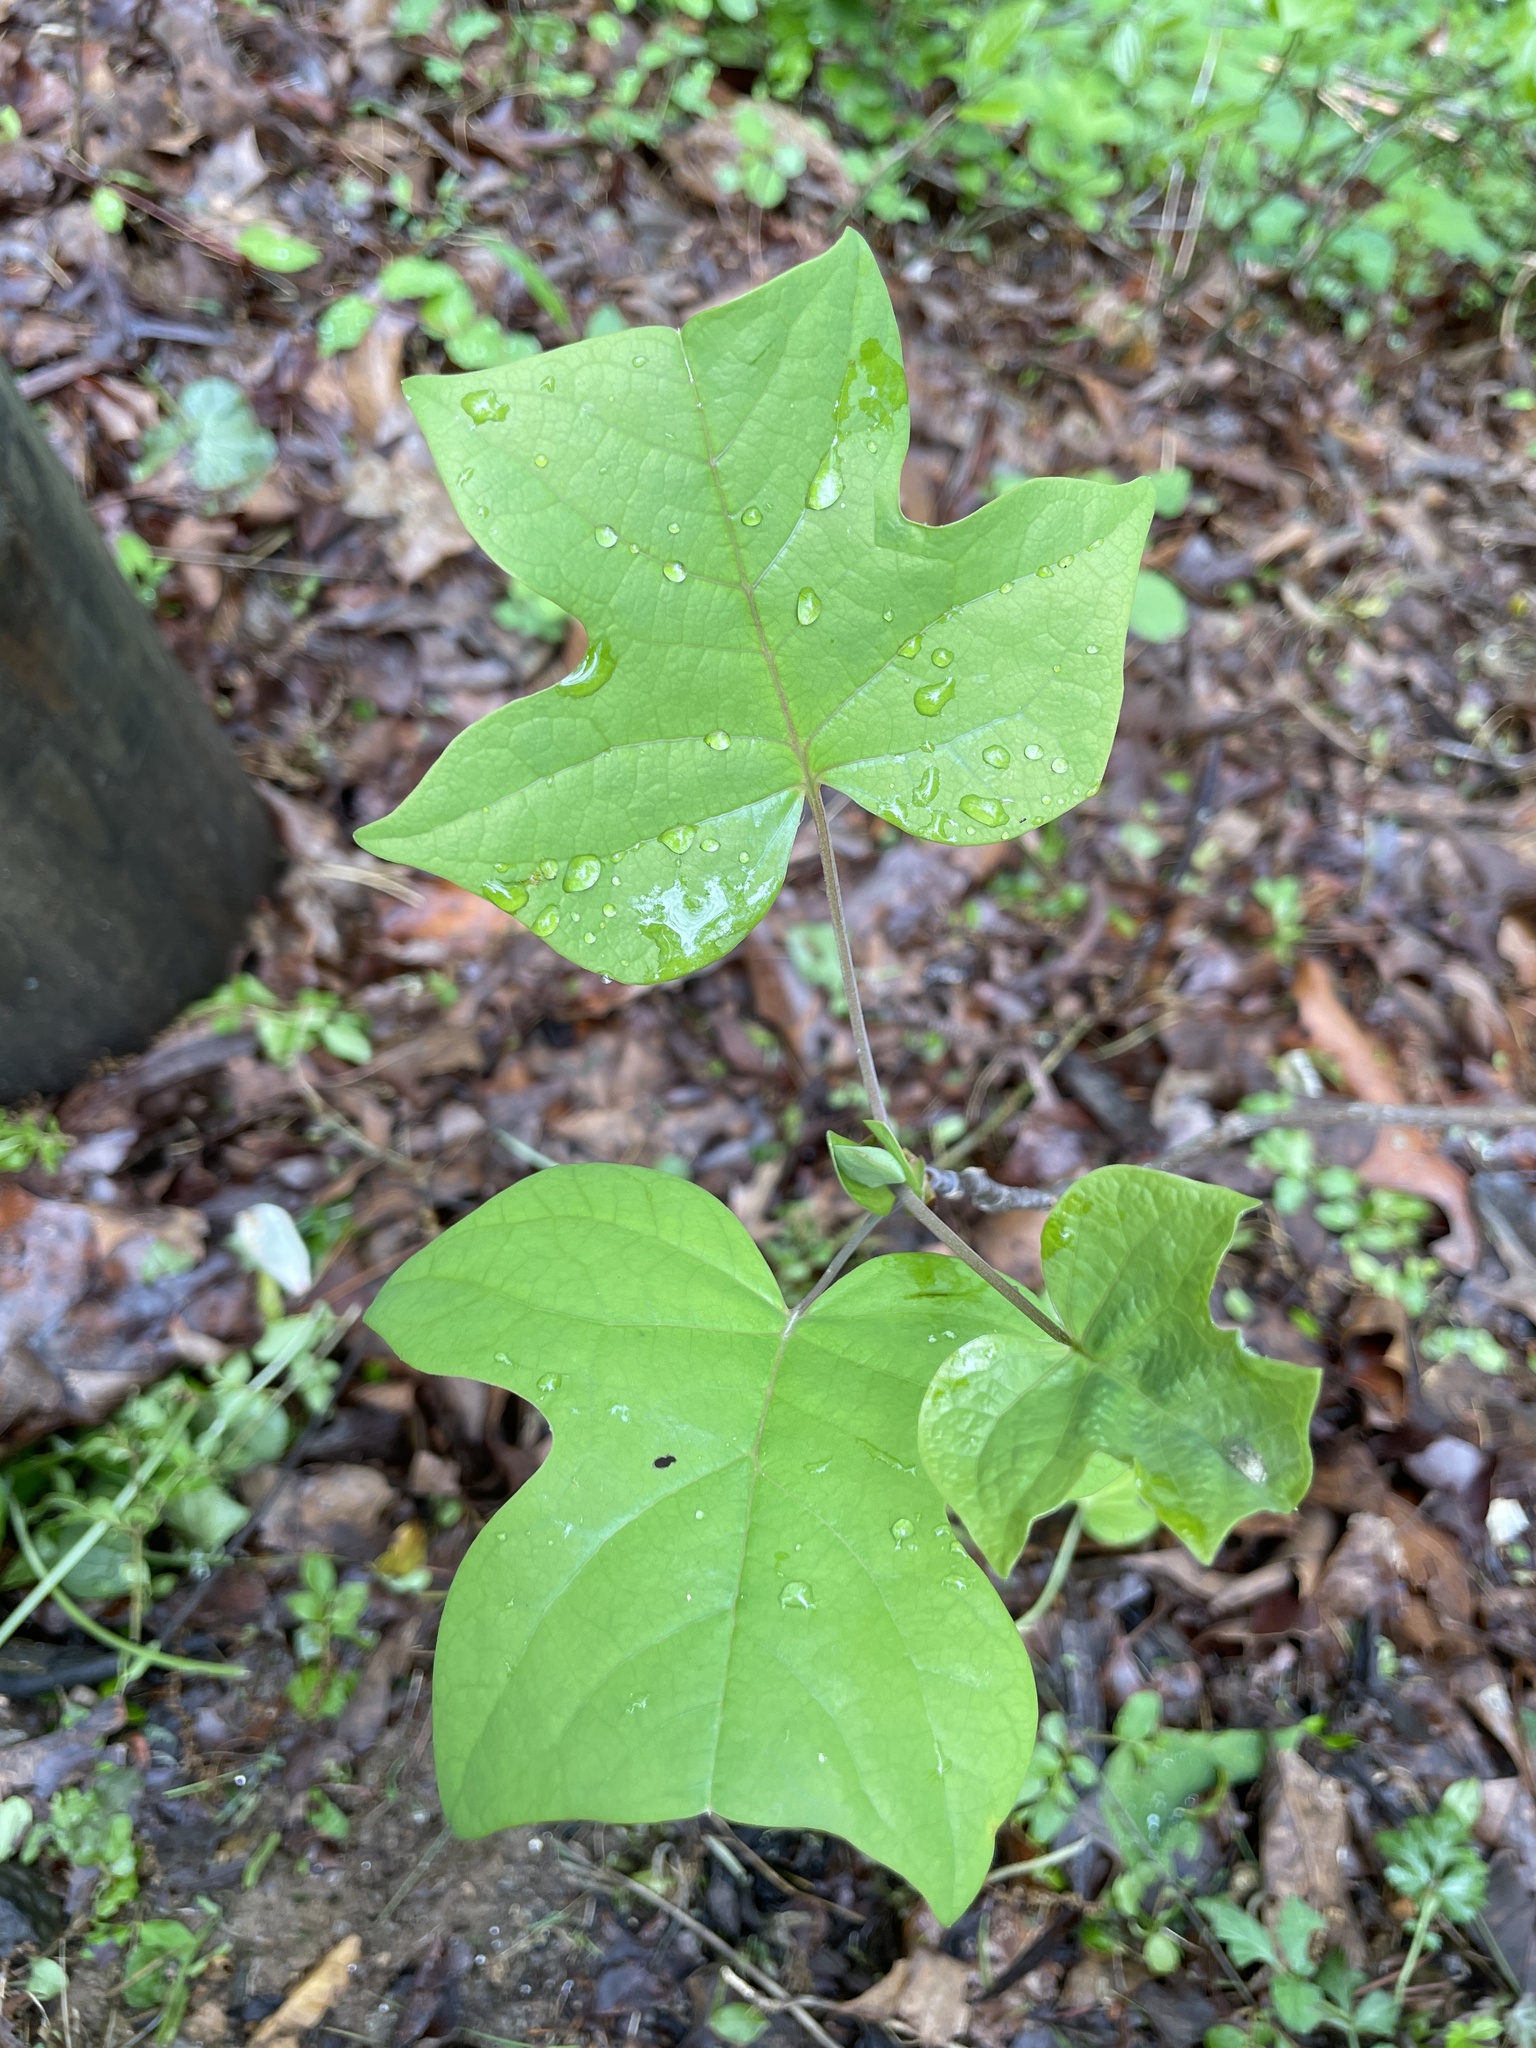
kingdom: Plantae
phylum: Tracheophyta
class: Magnoliopsida
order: Magnoliales
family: Magnoliaceae
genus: Liriodendron
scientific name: Liriodendron tulipifera
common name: Tulip tree
